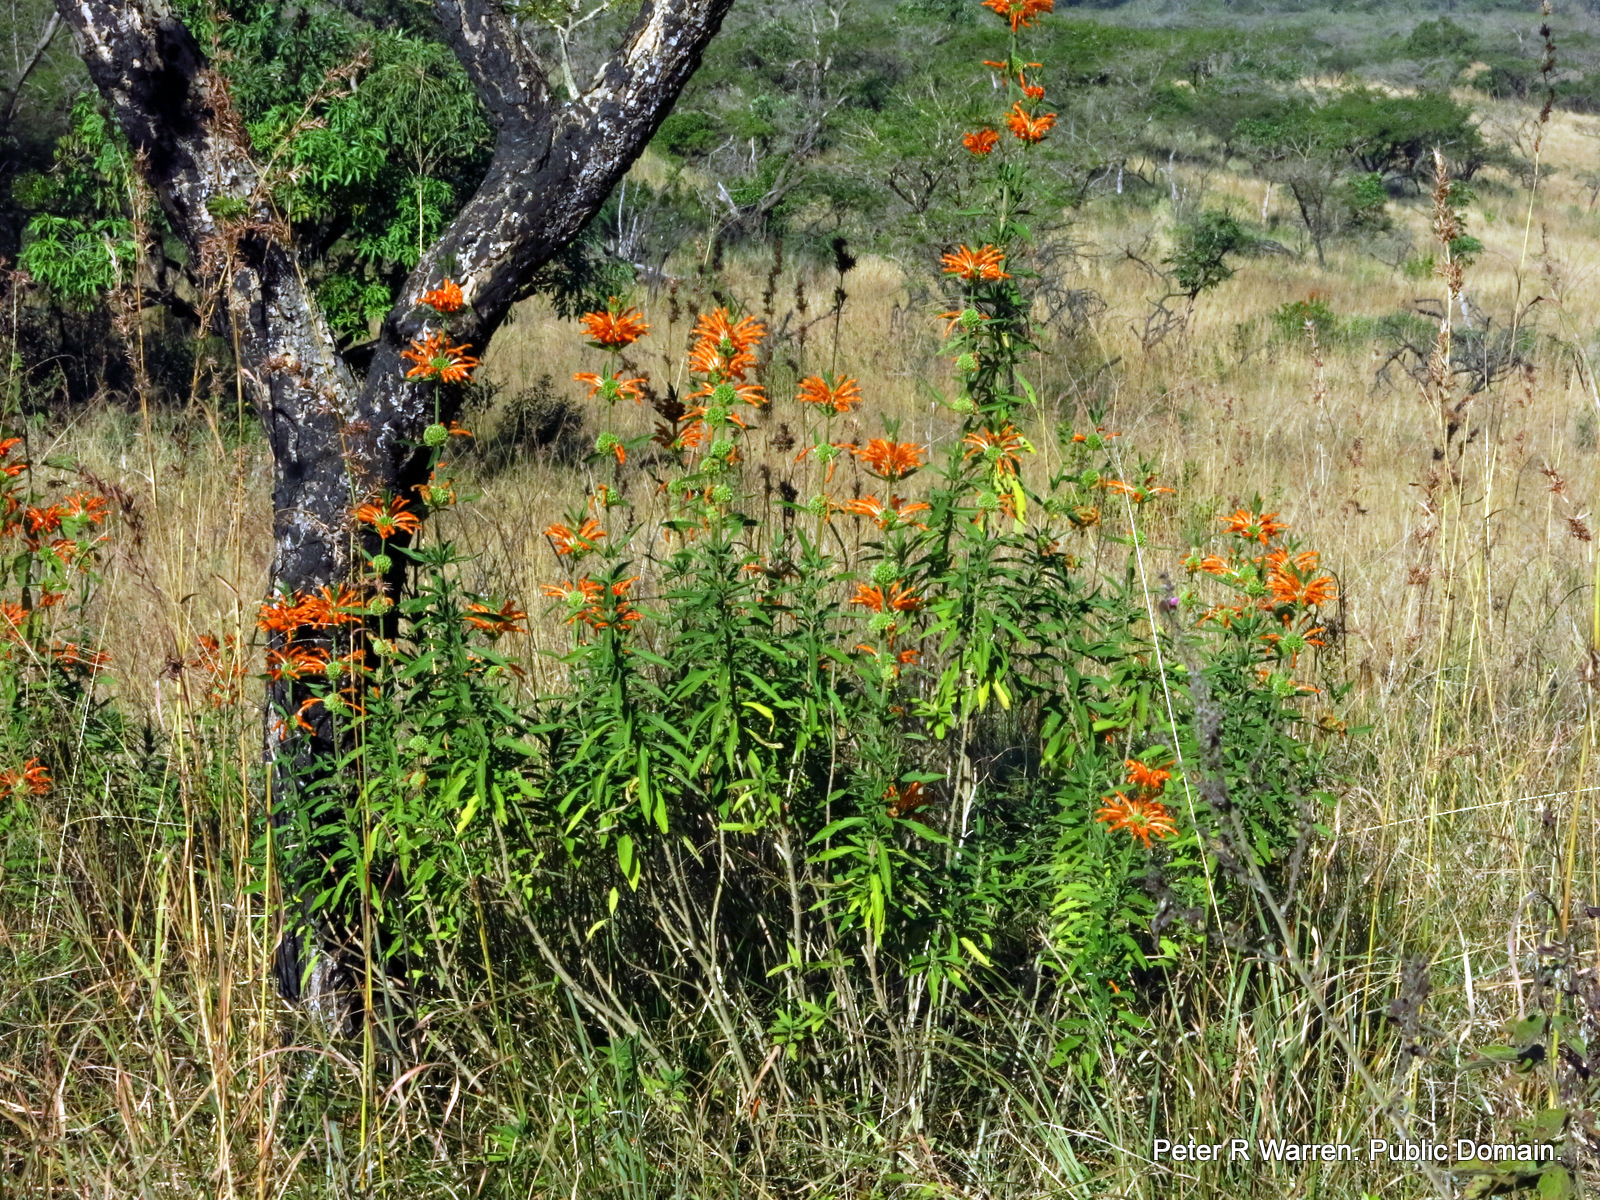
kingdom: Plantae
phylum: Tracheophyta
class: Magnoliopsida
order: Lamiales
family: Lamiaceae
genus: Leonotis
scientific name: Leonotis leonurus
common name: Lion's ear
